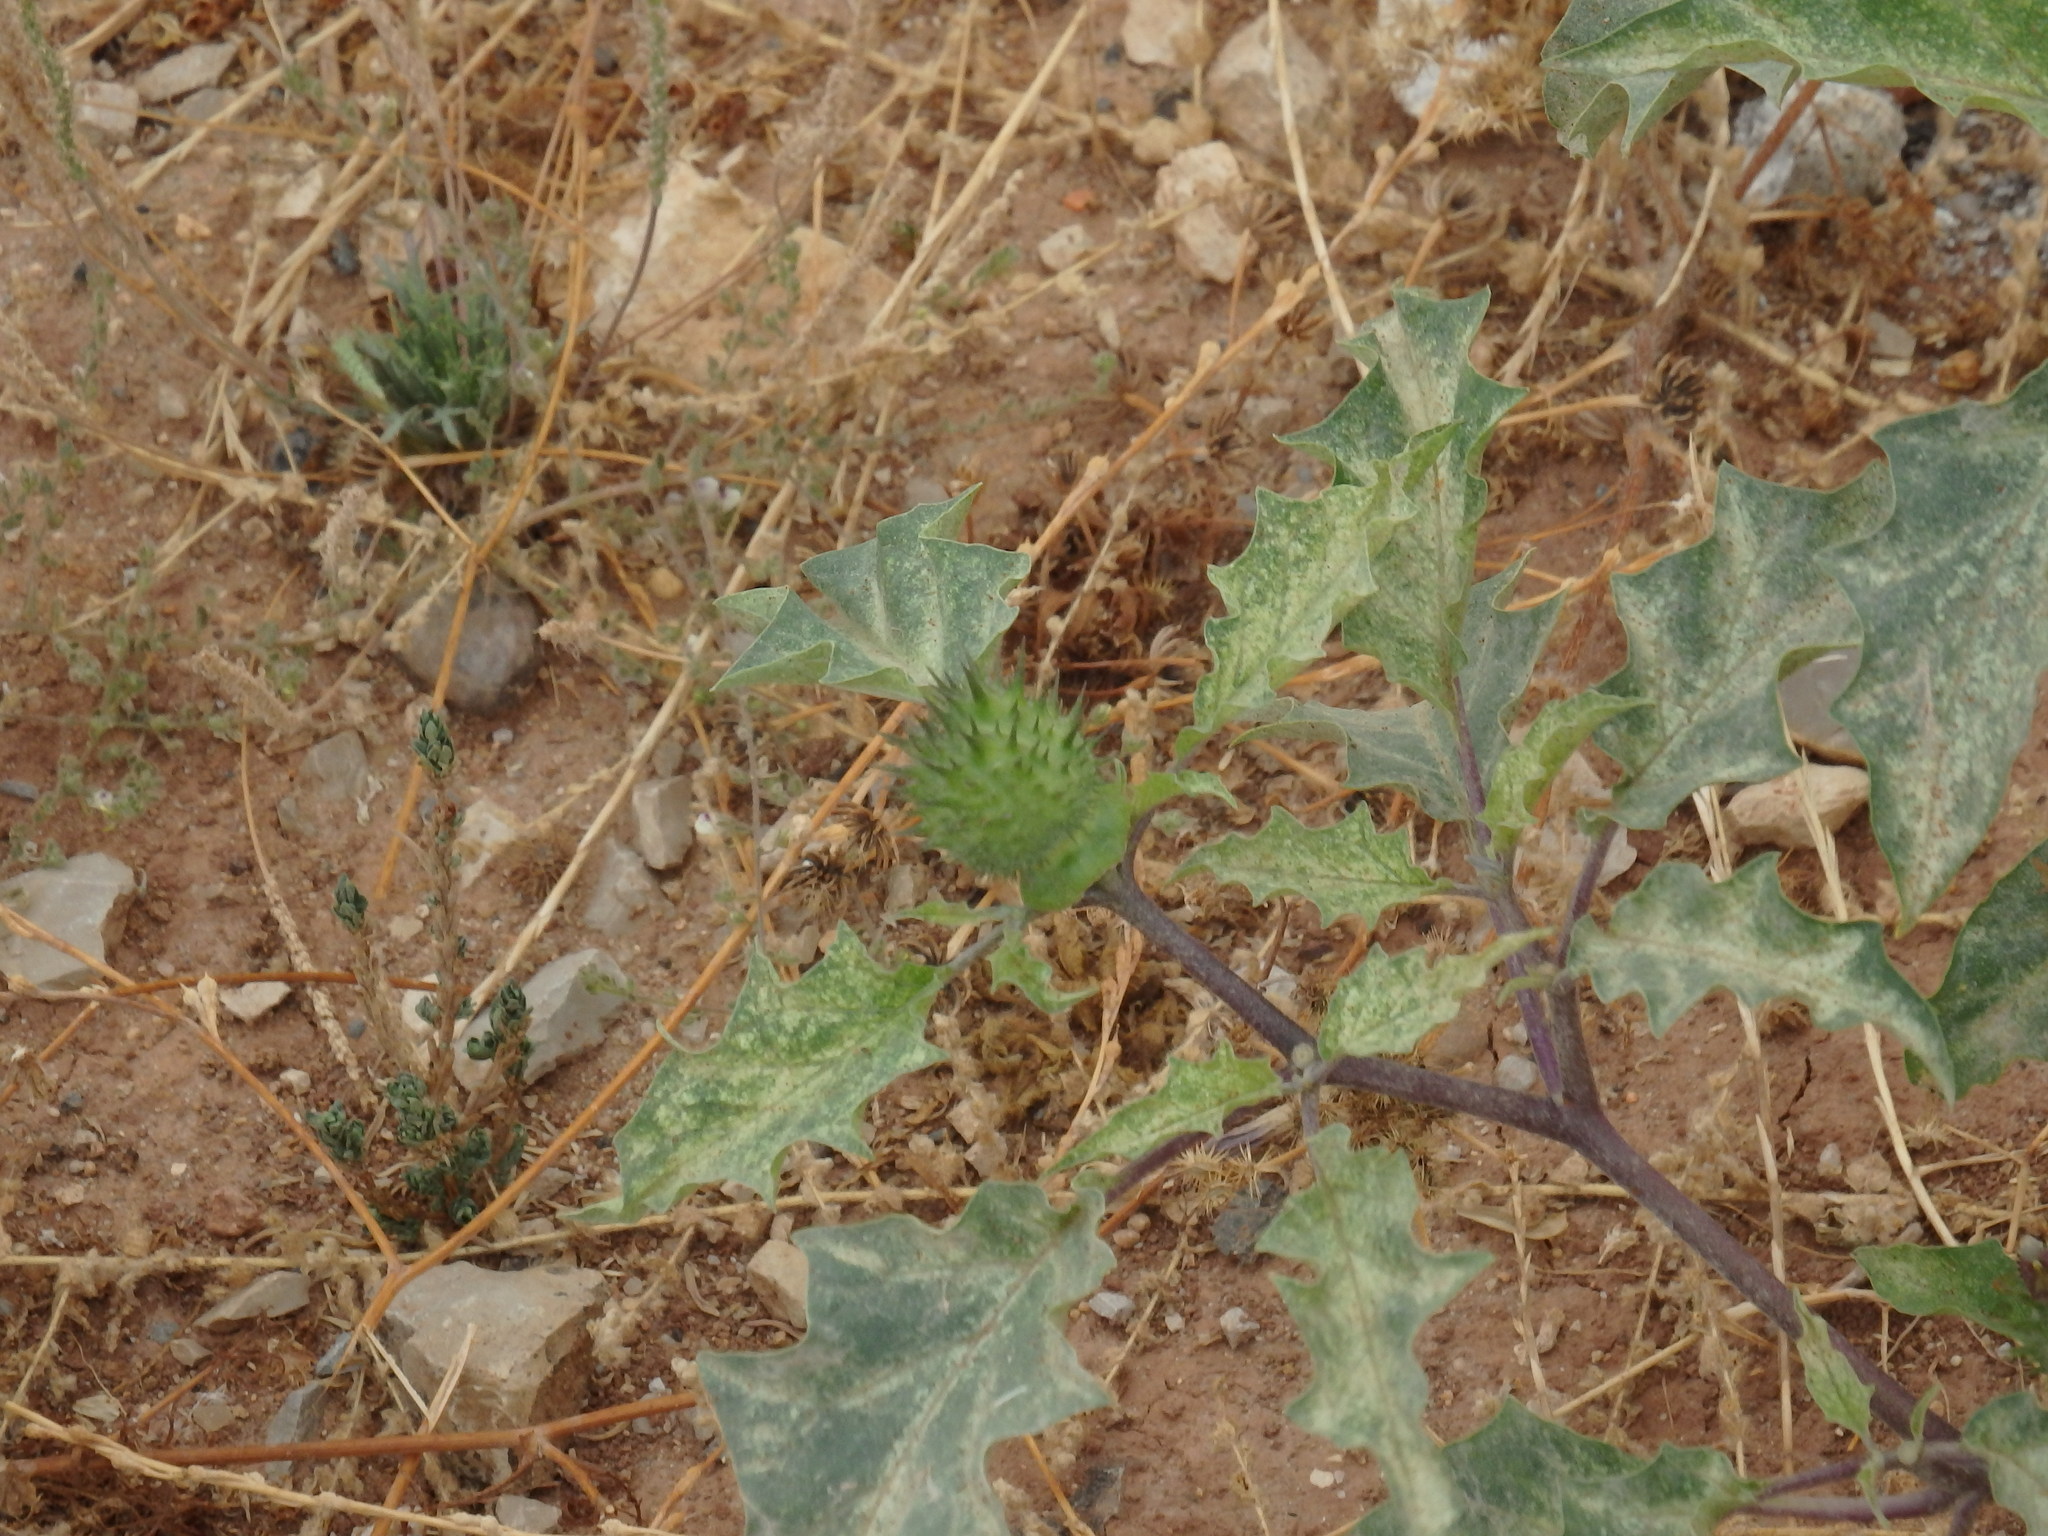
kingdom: Plantae
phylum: Tracheophyta
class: Magnoliopsida
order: Solanales
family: Solanaceae
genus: Datura
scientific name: Datura stramonium
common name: Thorn-apple
